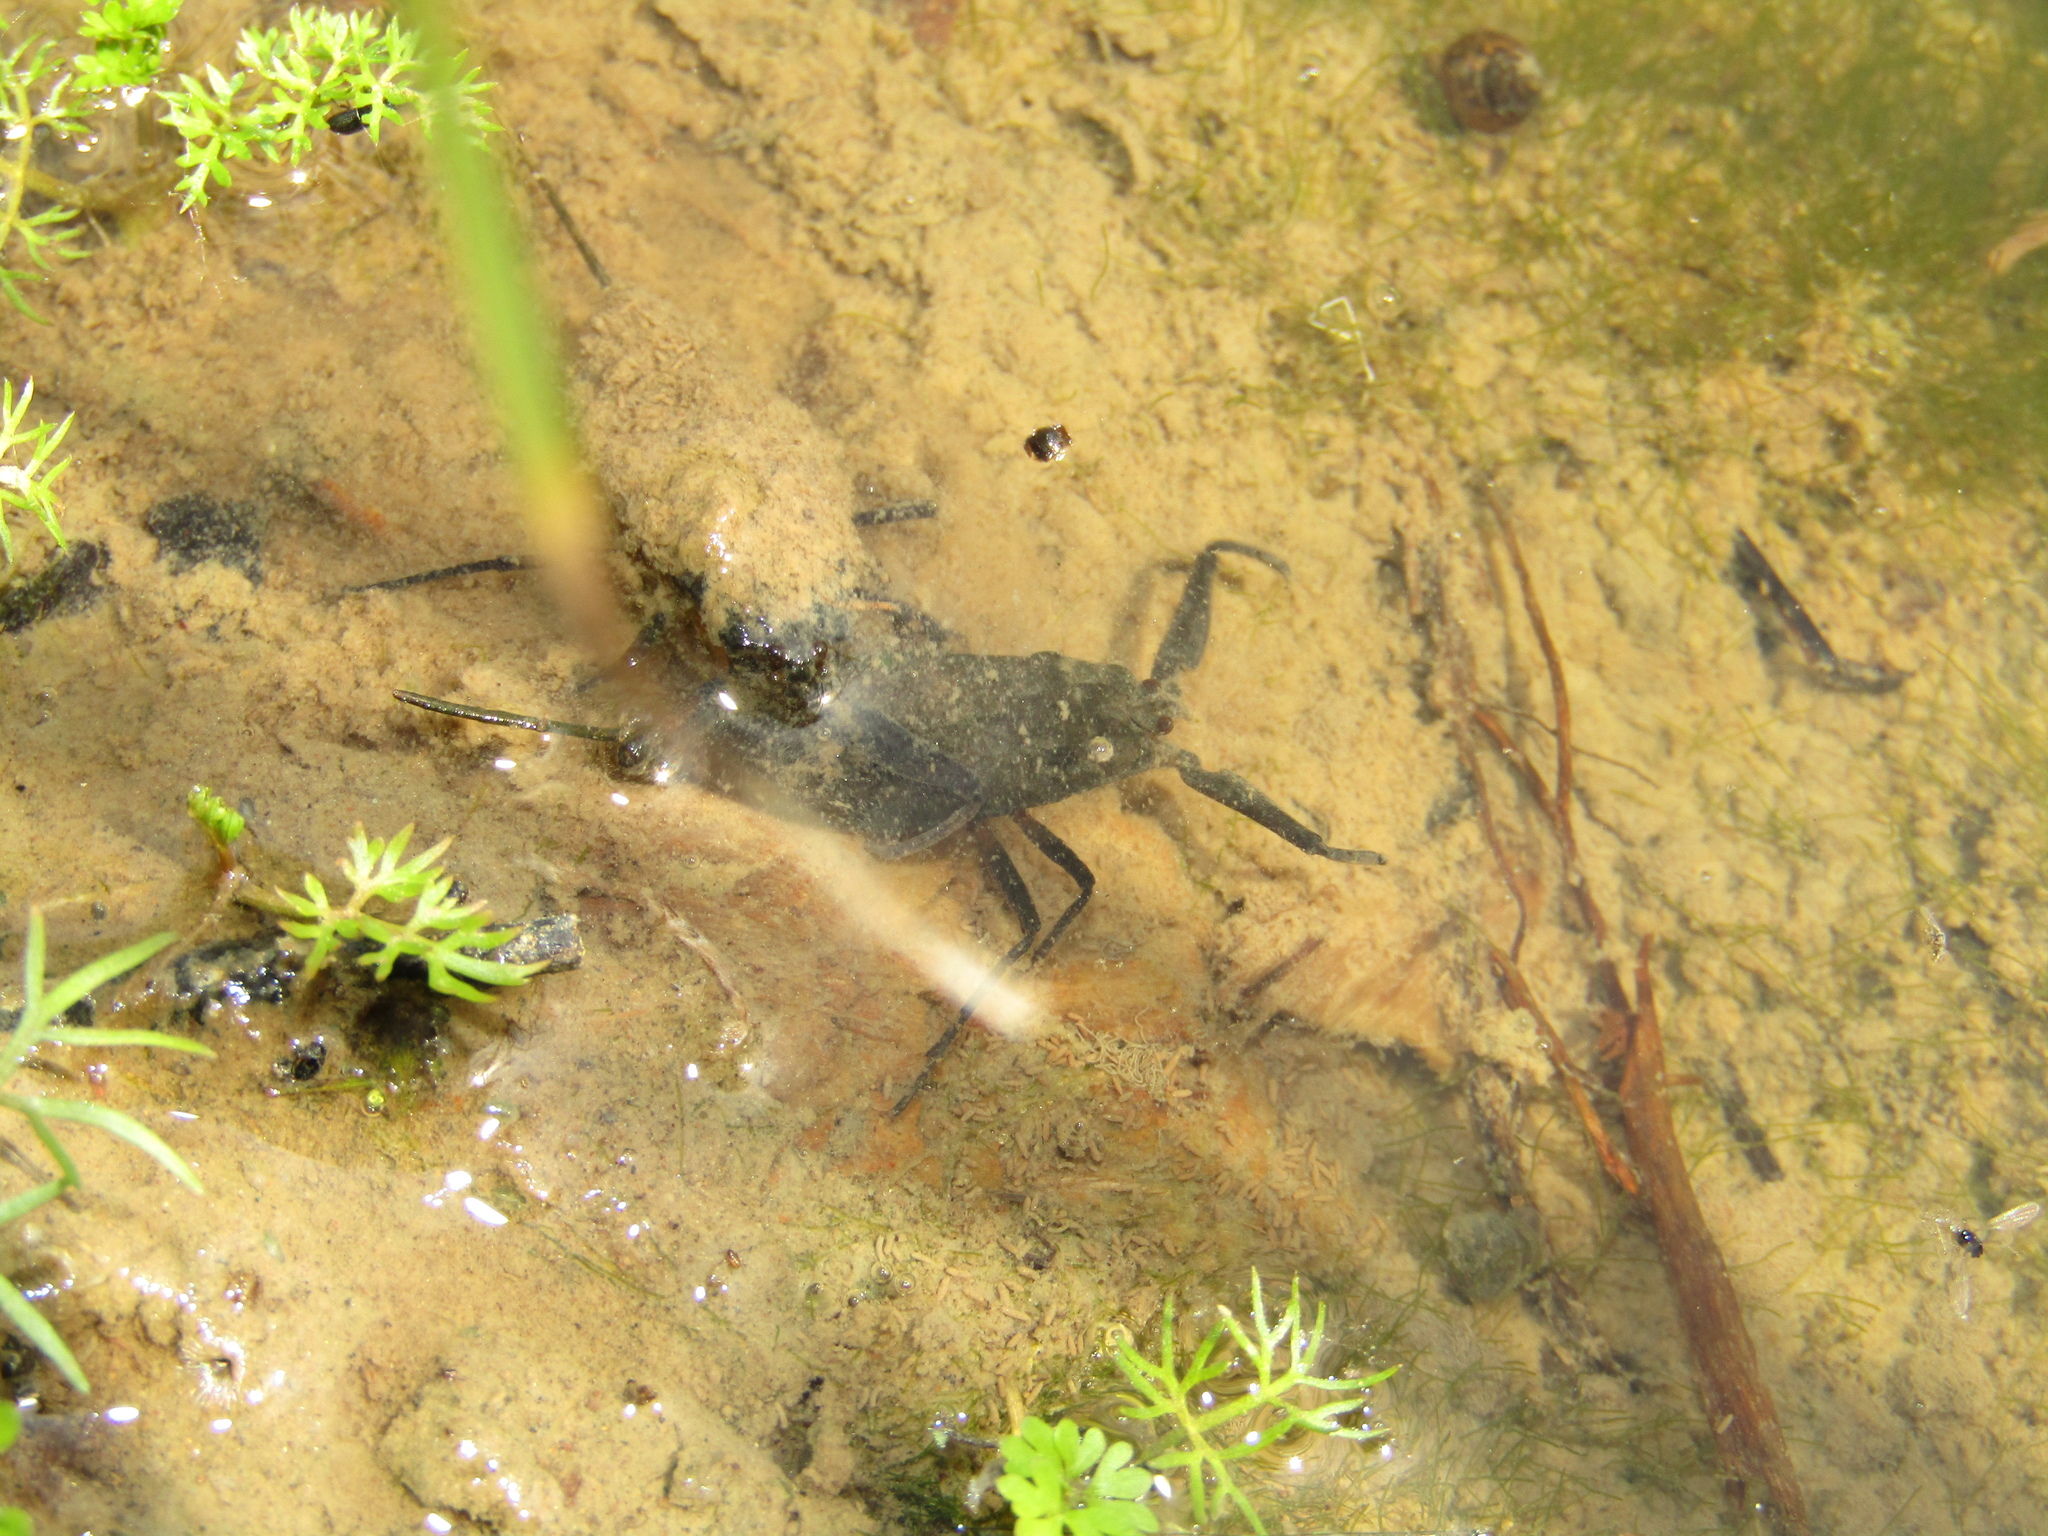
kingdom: Animalia
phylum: Arthropoda
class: Insecta
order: Hemiptera
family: Nepidae
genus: Nepa
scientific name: Nepa cinerea
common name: Water scorpion
